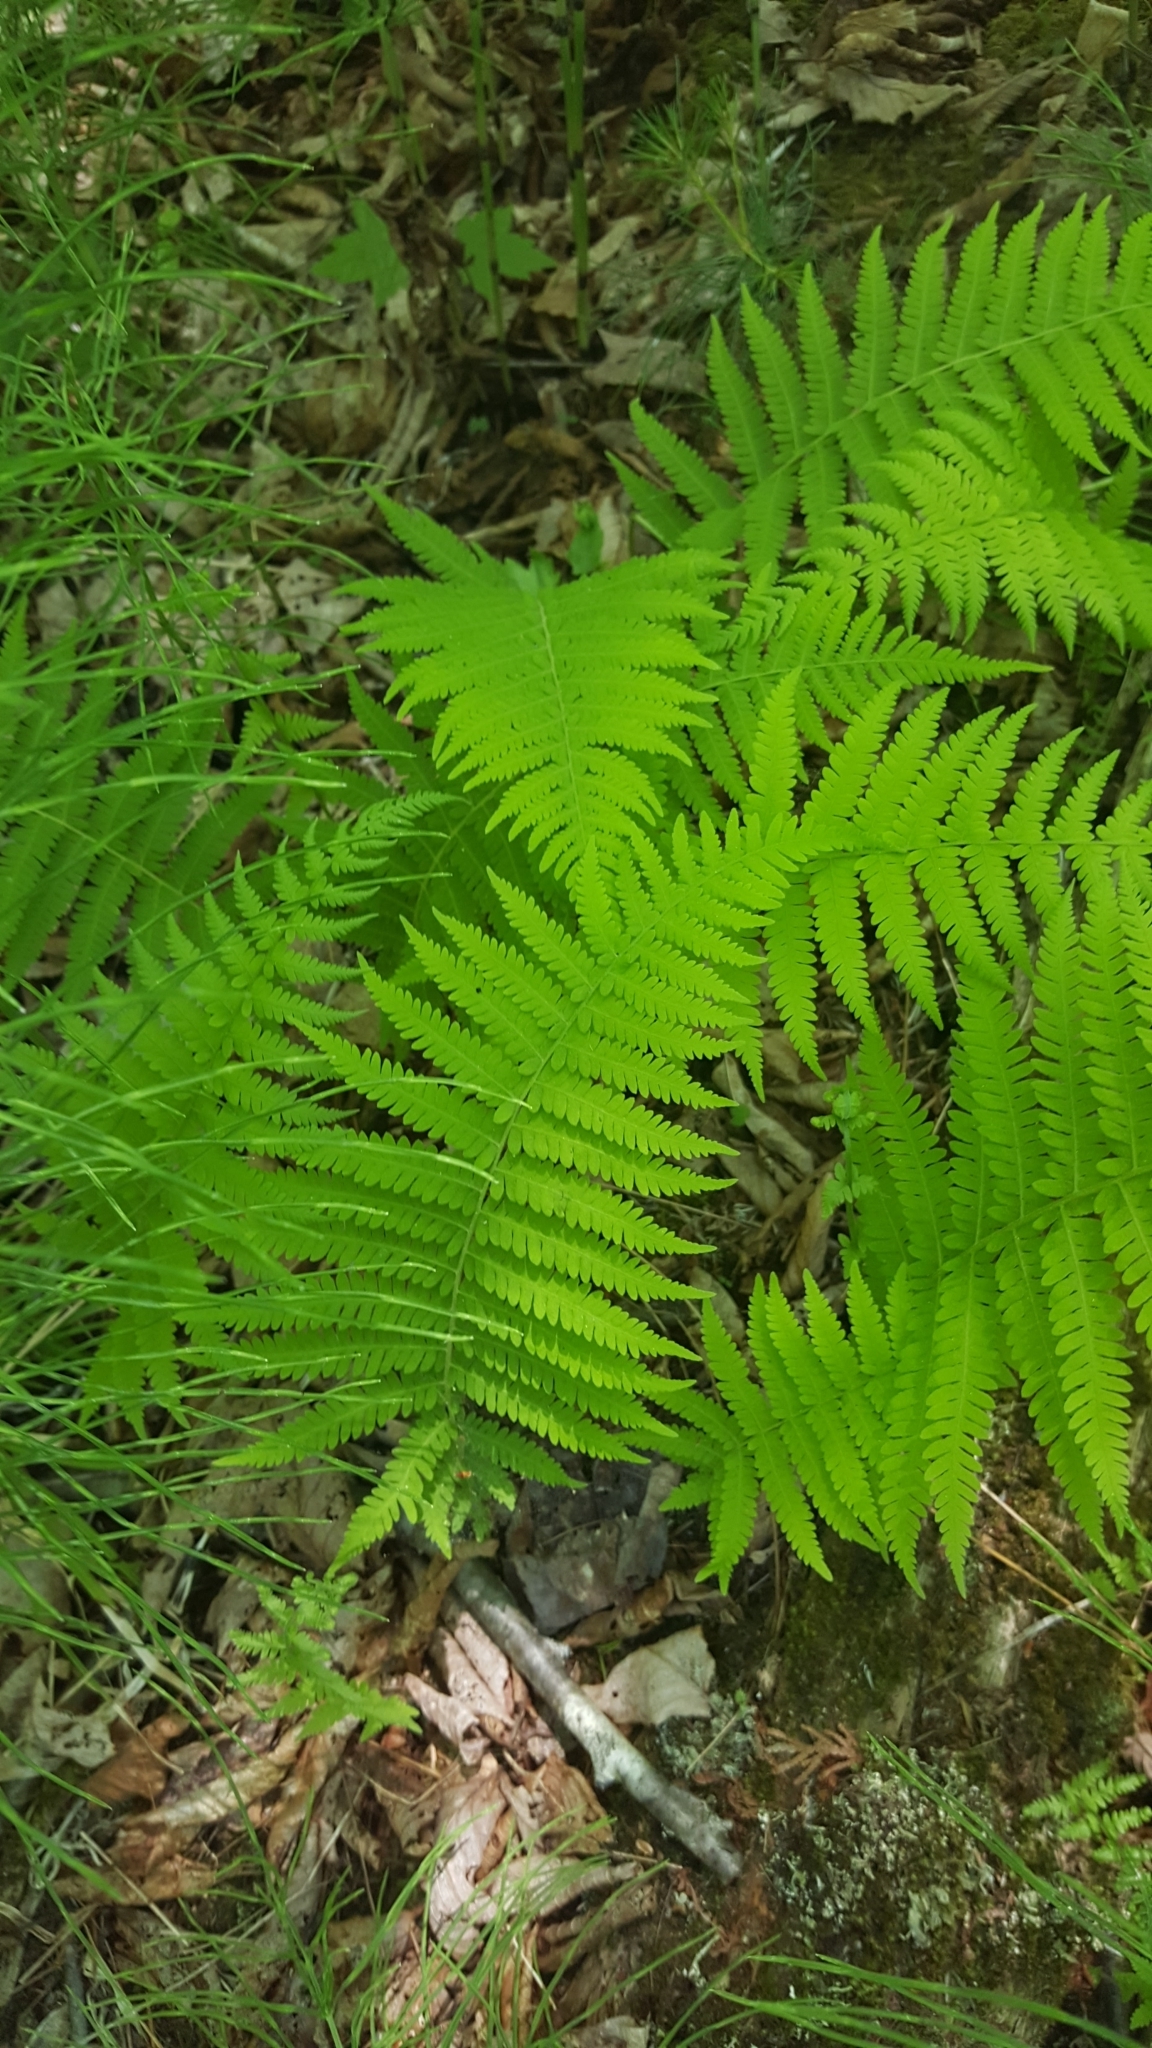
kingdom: Plantae
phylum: Tracheophyta
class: Polypodiopsida
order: Polypodiales
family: Thelypteridaceae
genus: Amauropelta
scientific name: Amauropelta noveboracensis
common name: New york fern
